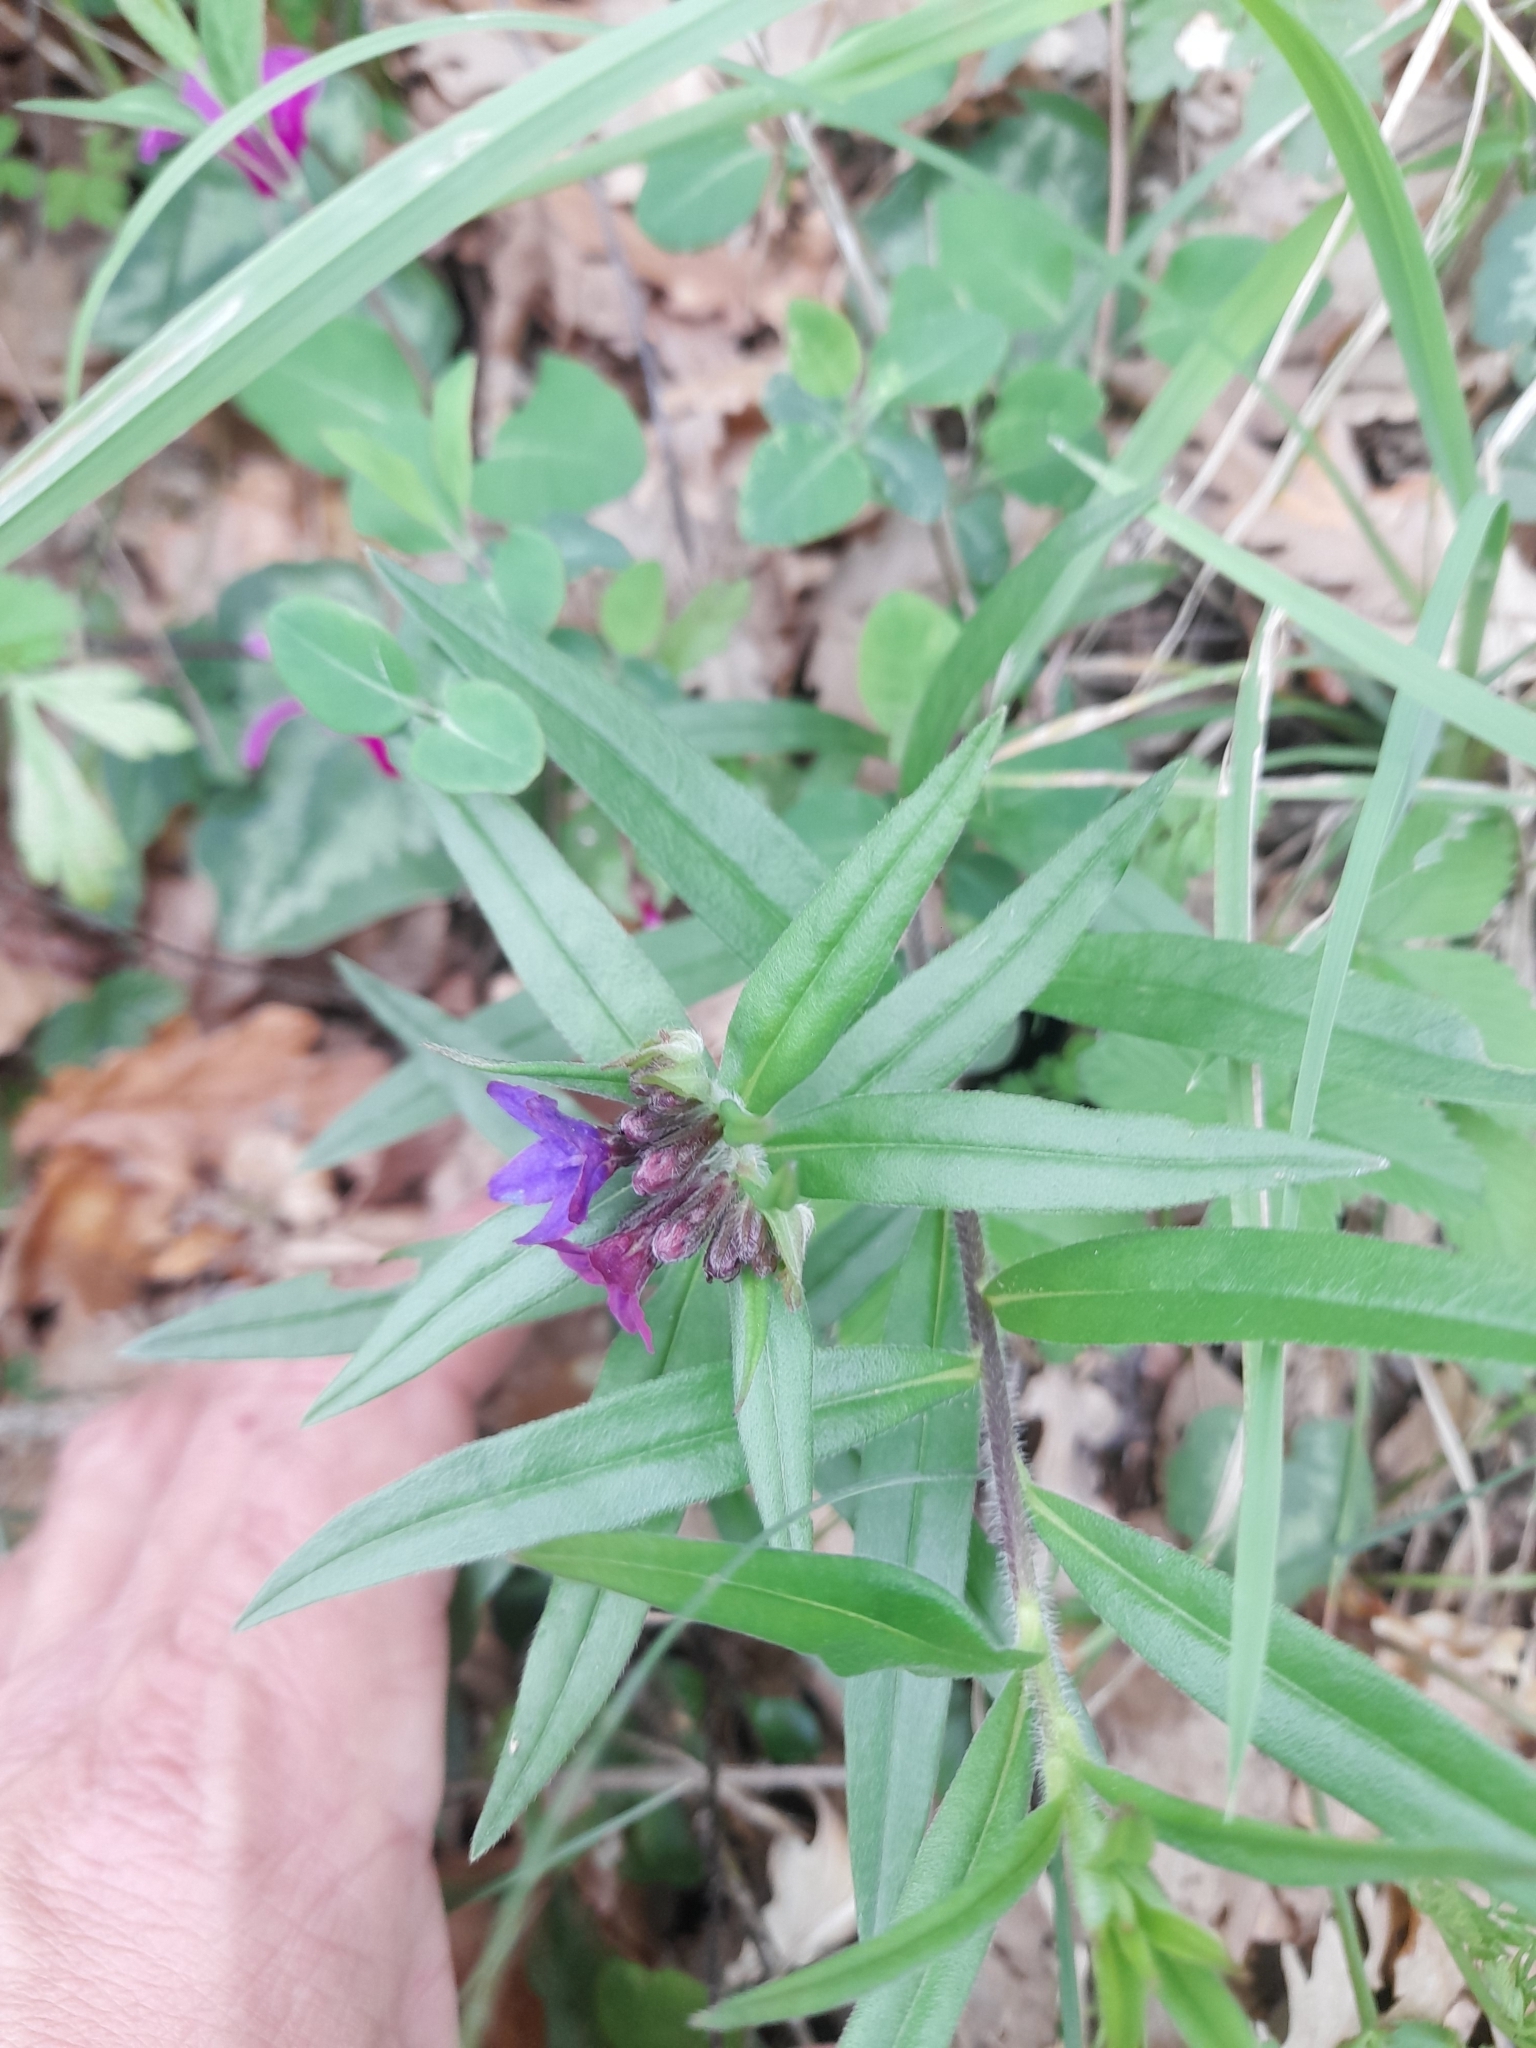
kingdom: Plantae
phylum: Tracheophyta
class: Magnoliopsida
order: Boraginales
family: Boraginaceae
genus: Aegonychon
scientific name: Aegonychon purpurocaeruleum
